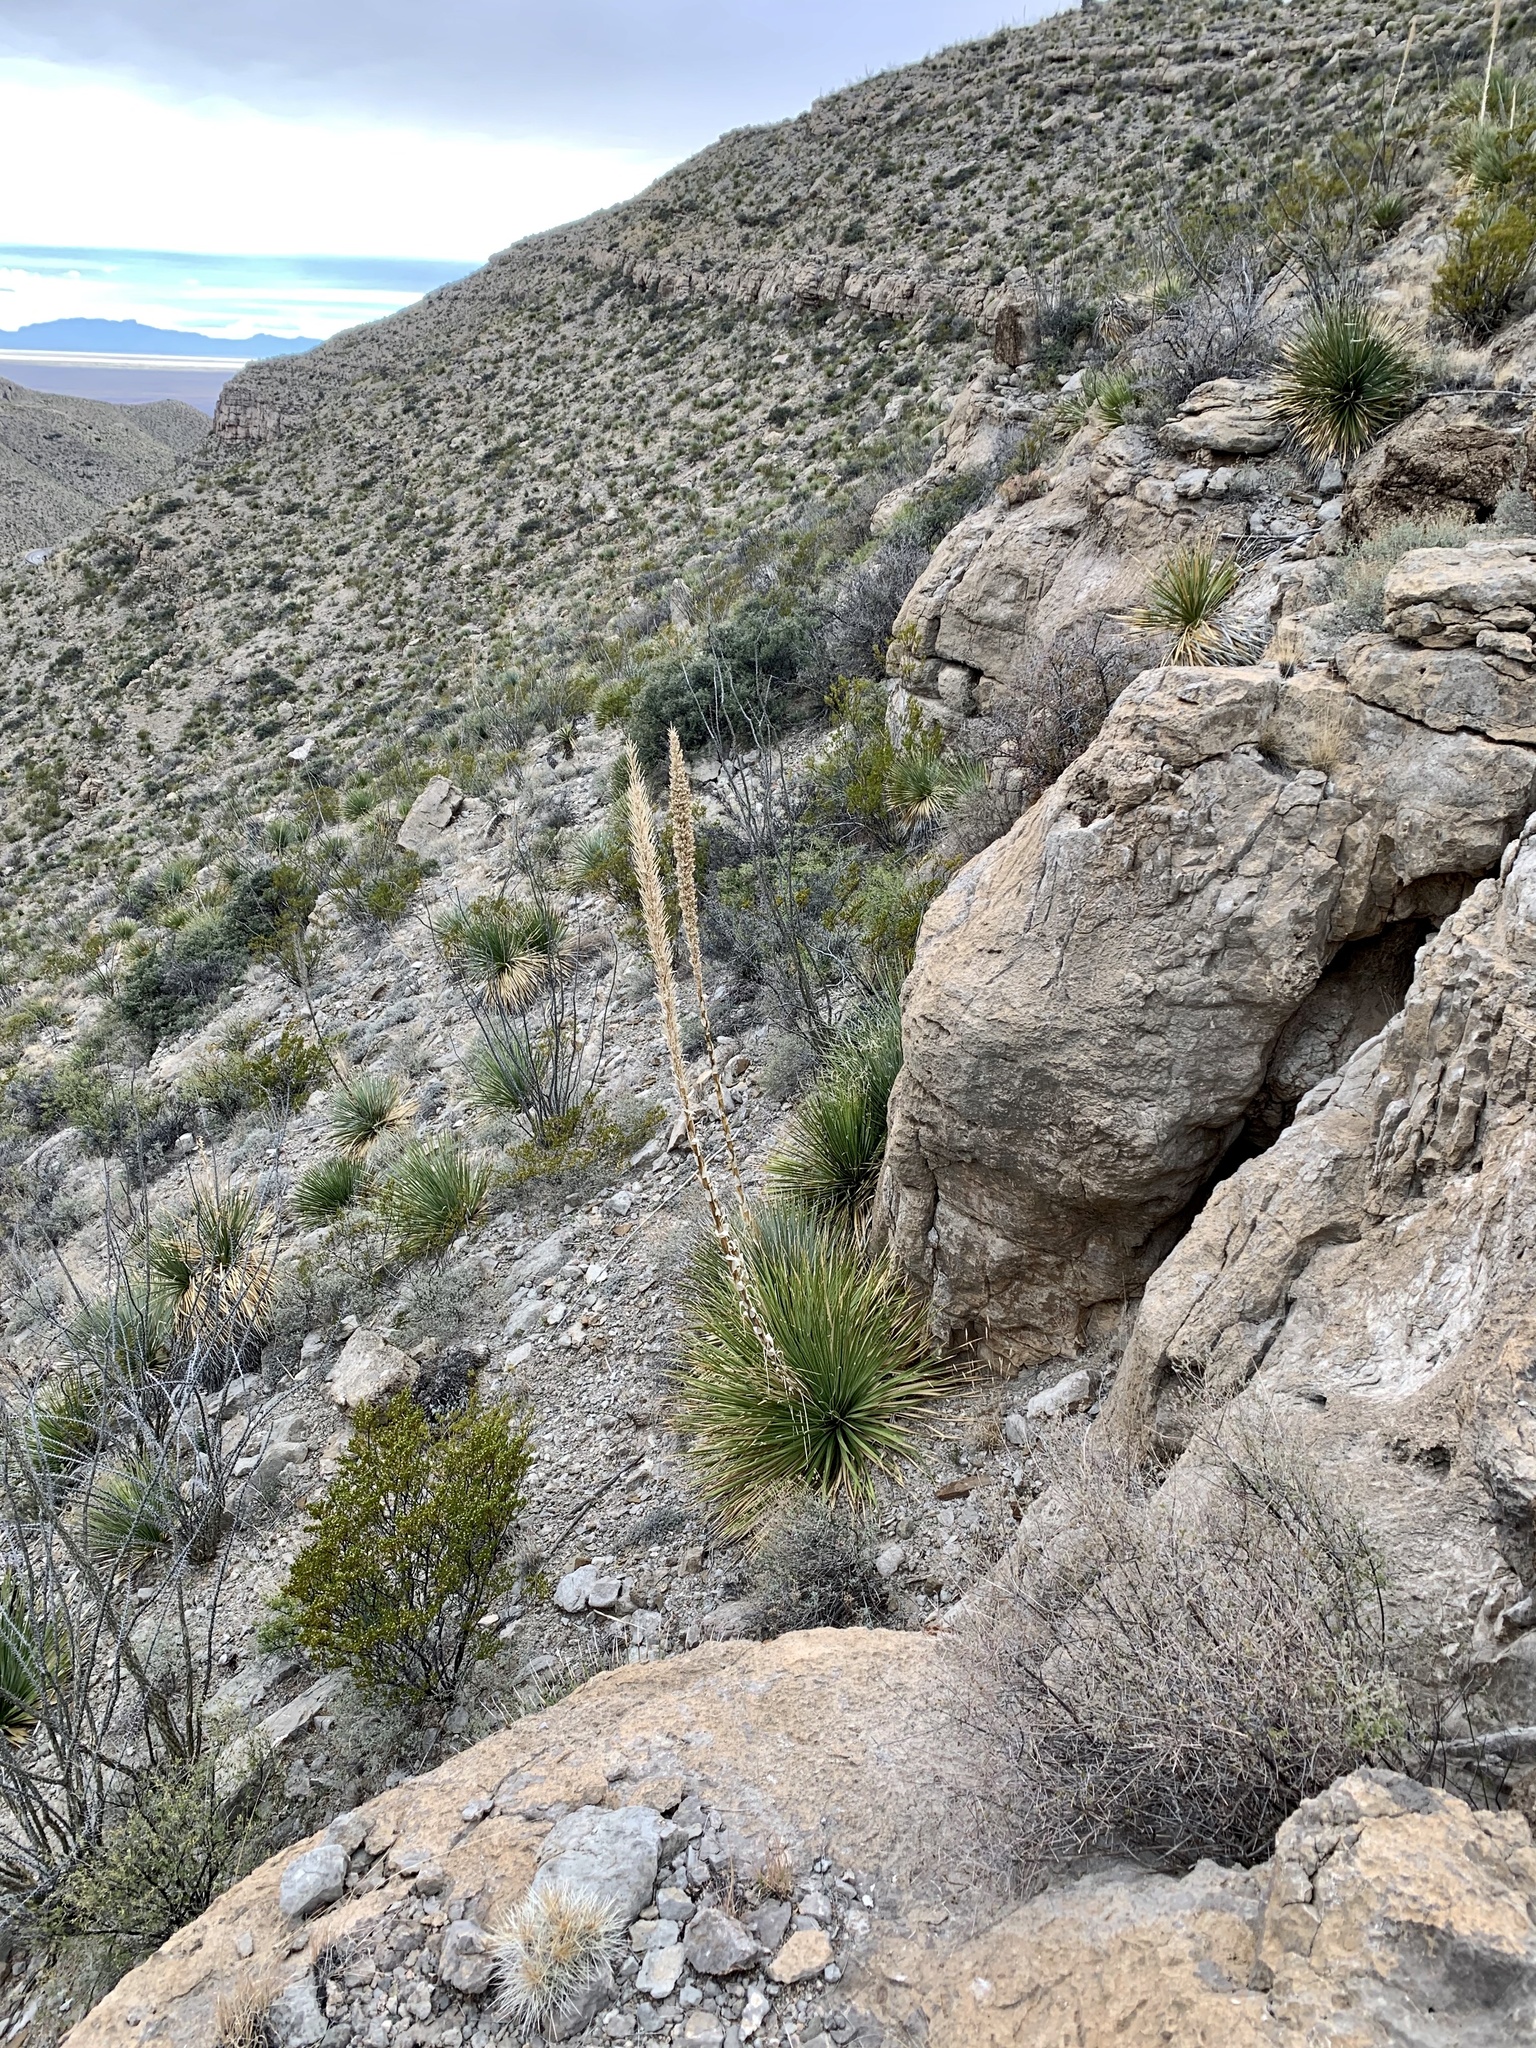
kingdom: Plantae
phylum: Tracheophyta
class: Liliopsida
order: Asparagales
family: Asparagaceae
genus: Dasylirion
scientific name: Dasylirion wheeleri
